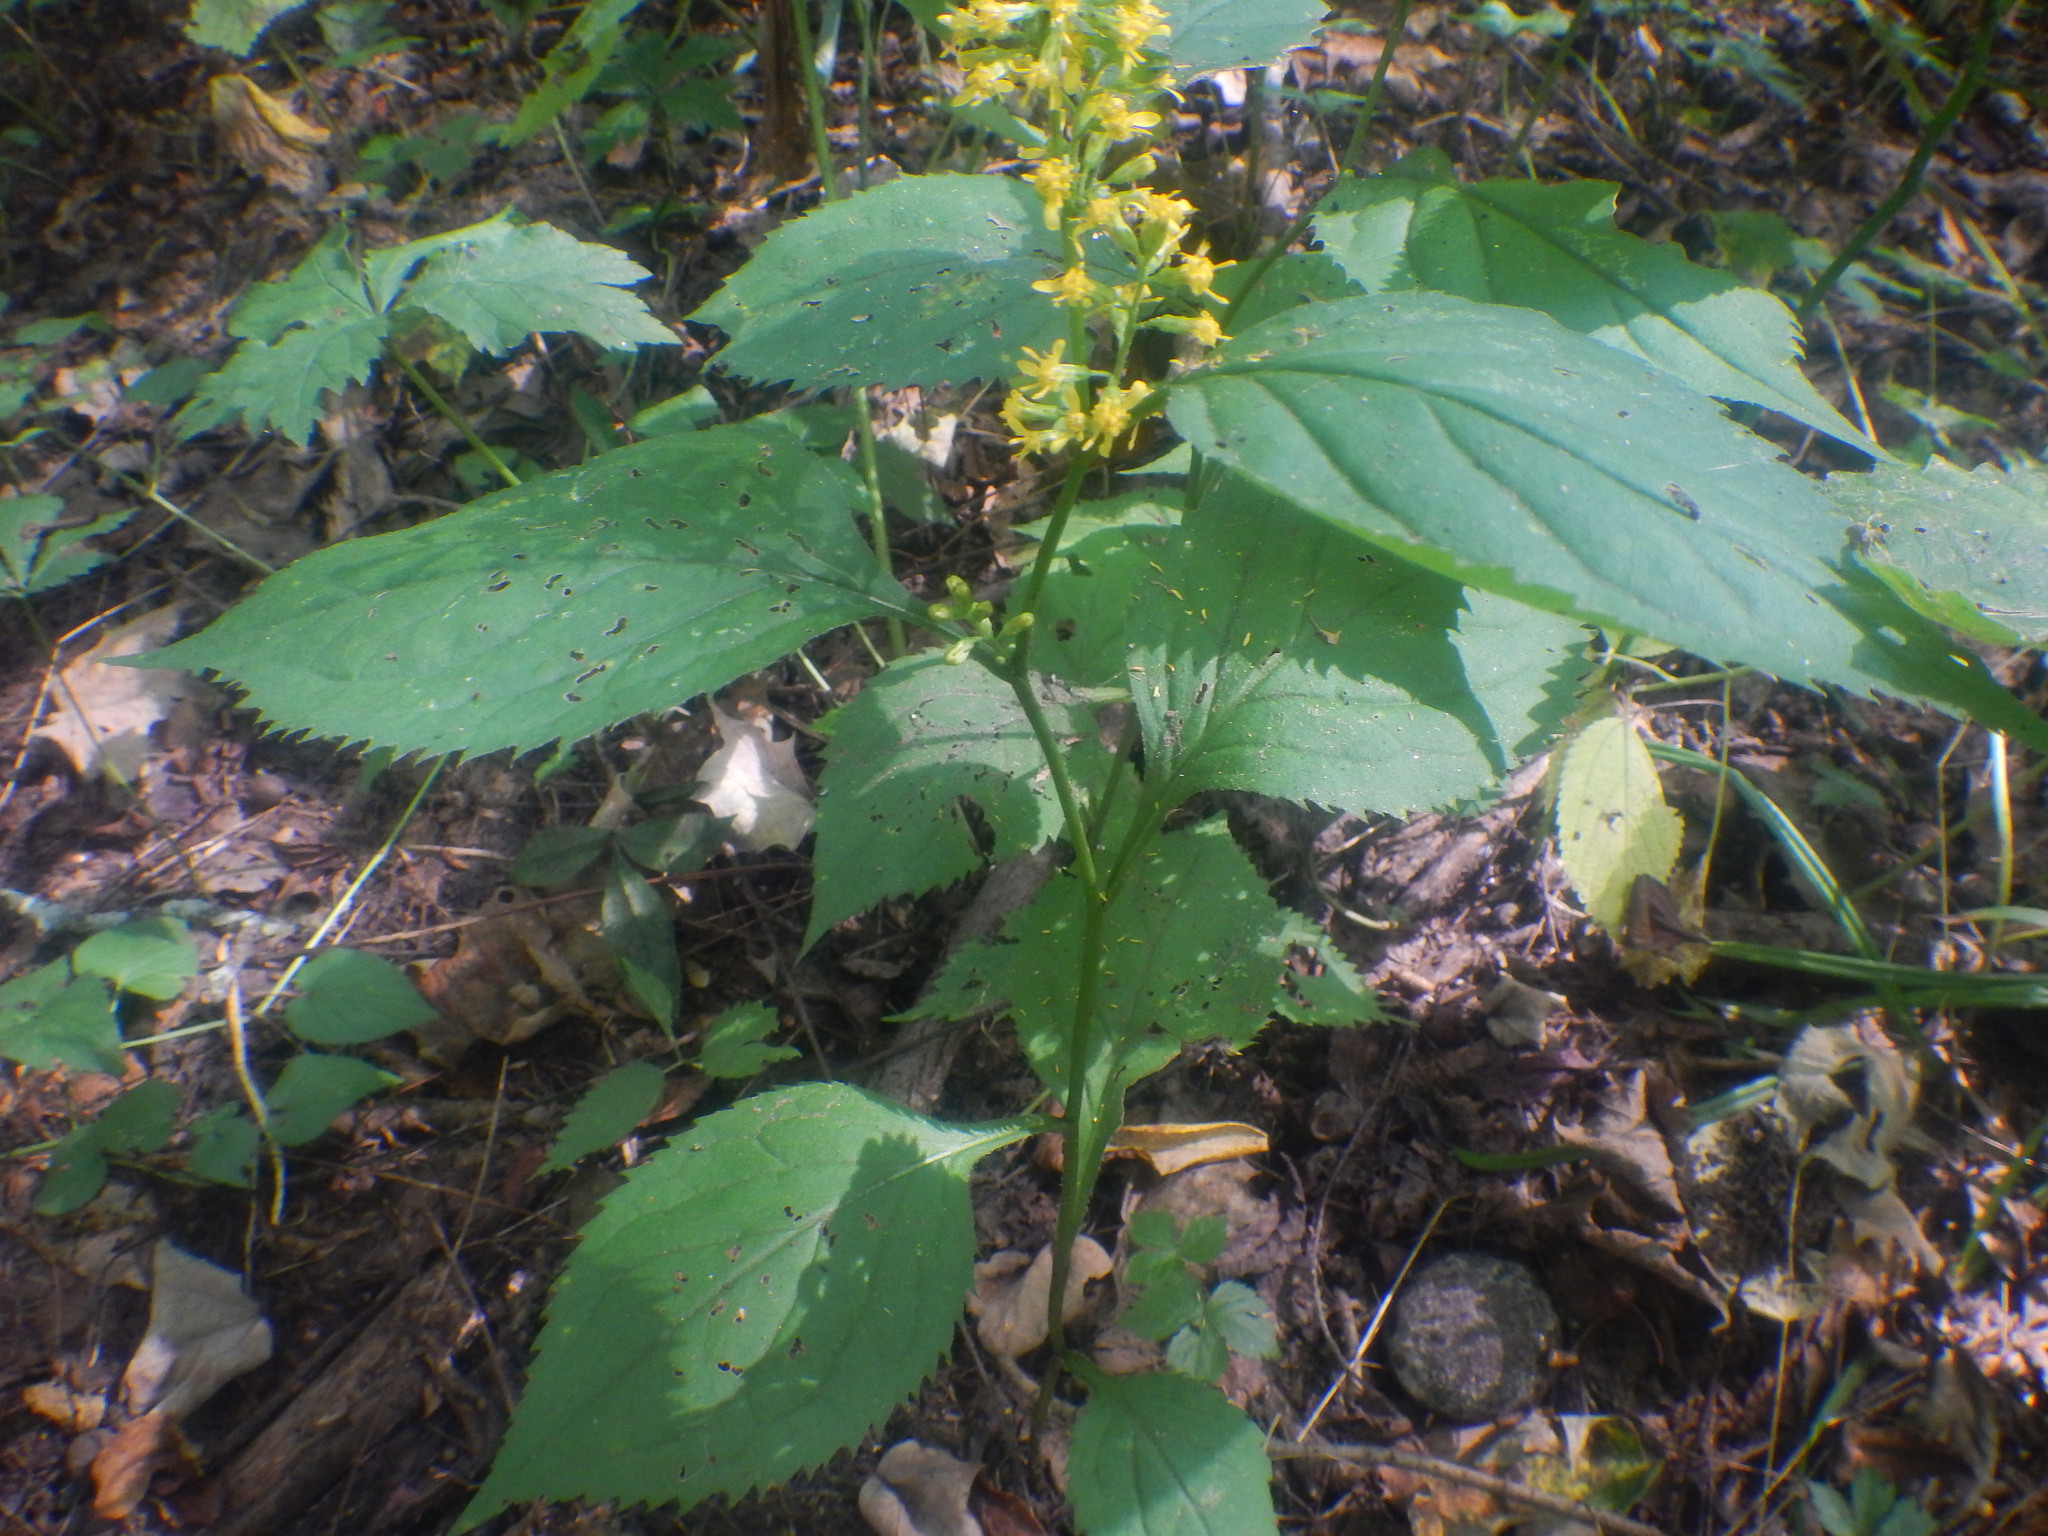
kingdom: Plantae
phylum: Tracheophyta
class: Magnoliopsida
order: Asterales
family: Asteraceae
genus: Solidago
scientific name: Solidago flexicaulis
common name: Zig-zag goldenrod
